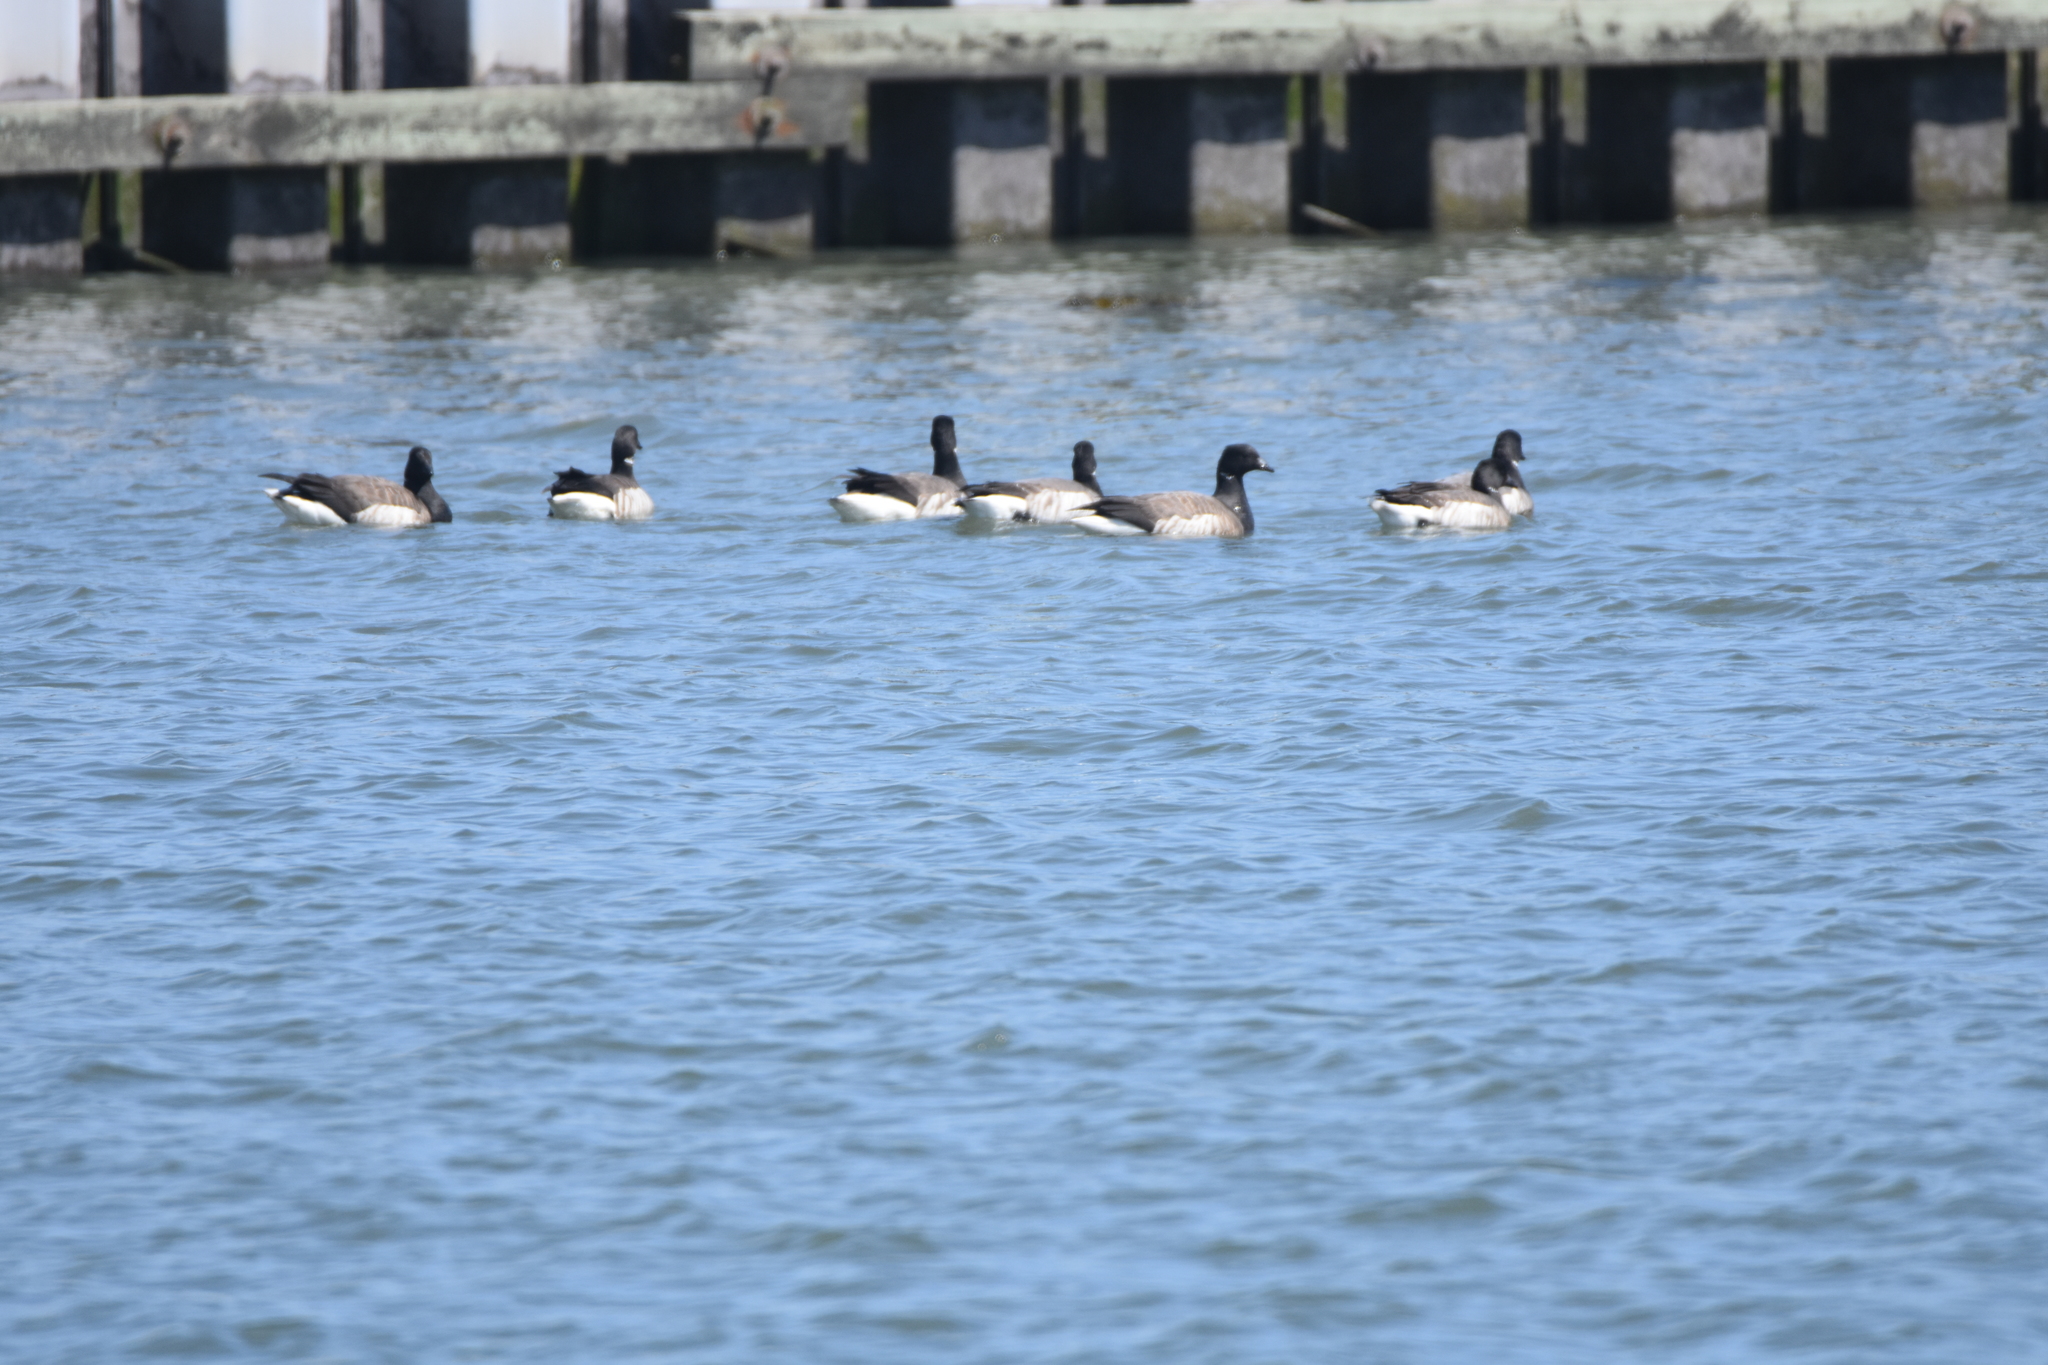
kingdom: Animalia
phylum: Chordata
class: Aves
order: Anseriformes
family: Anatidae
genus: Branta
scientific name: Branta bernicla
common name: Brant goose
